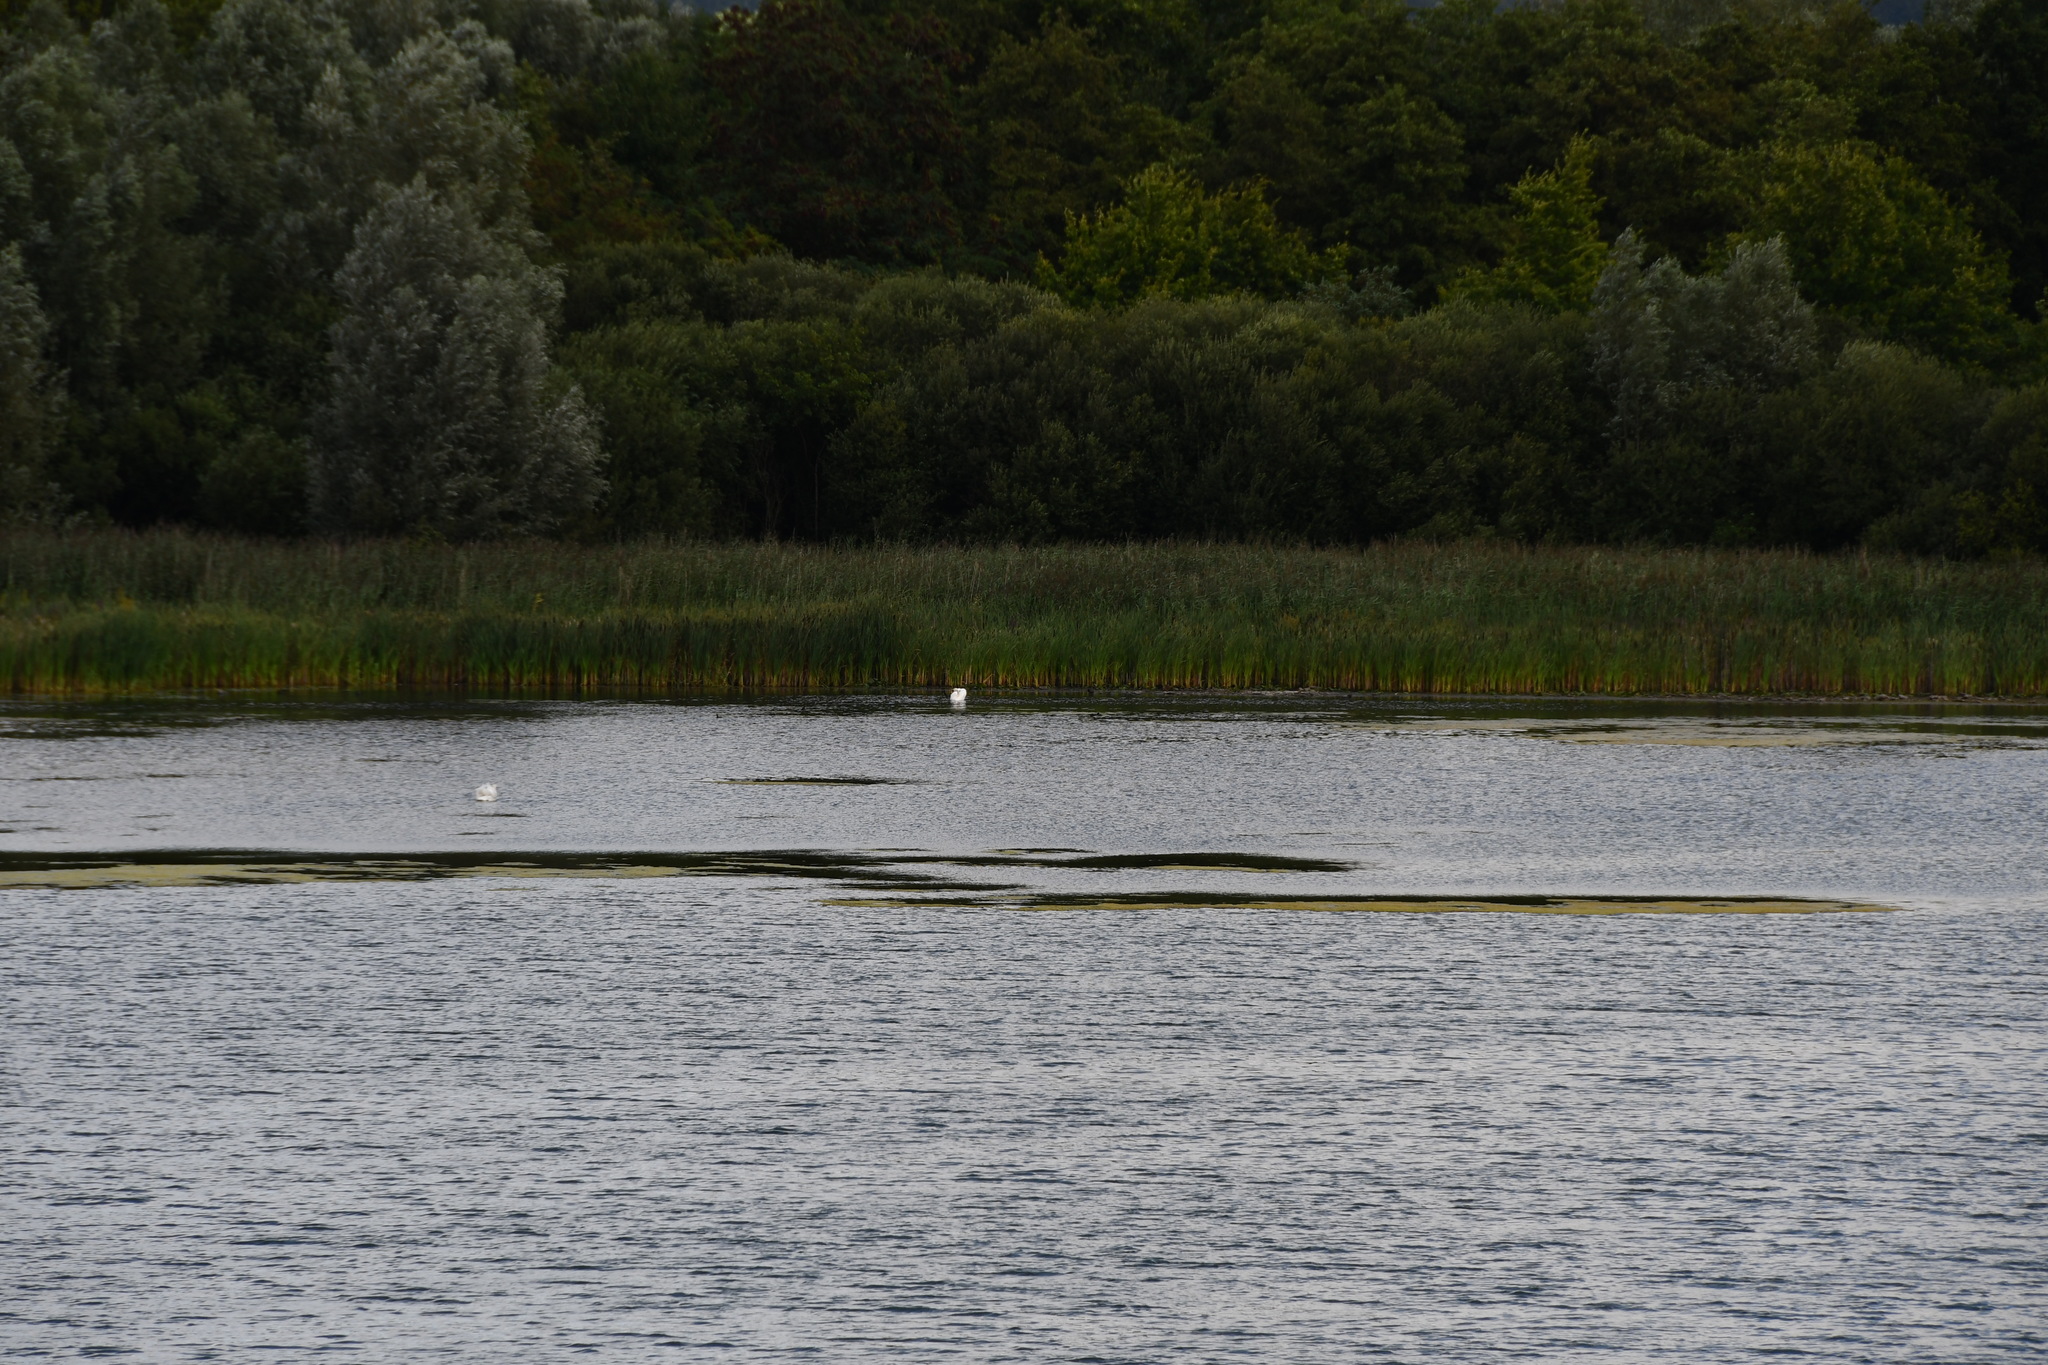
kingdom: Animalia
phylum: Chordata
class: Aves
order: Anseriformes
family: Anatidae
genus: Cygnus
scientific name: Cygnus olor
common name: Mute swan
